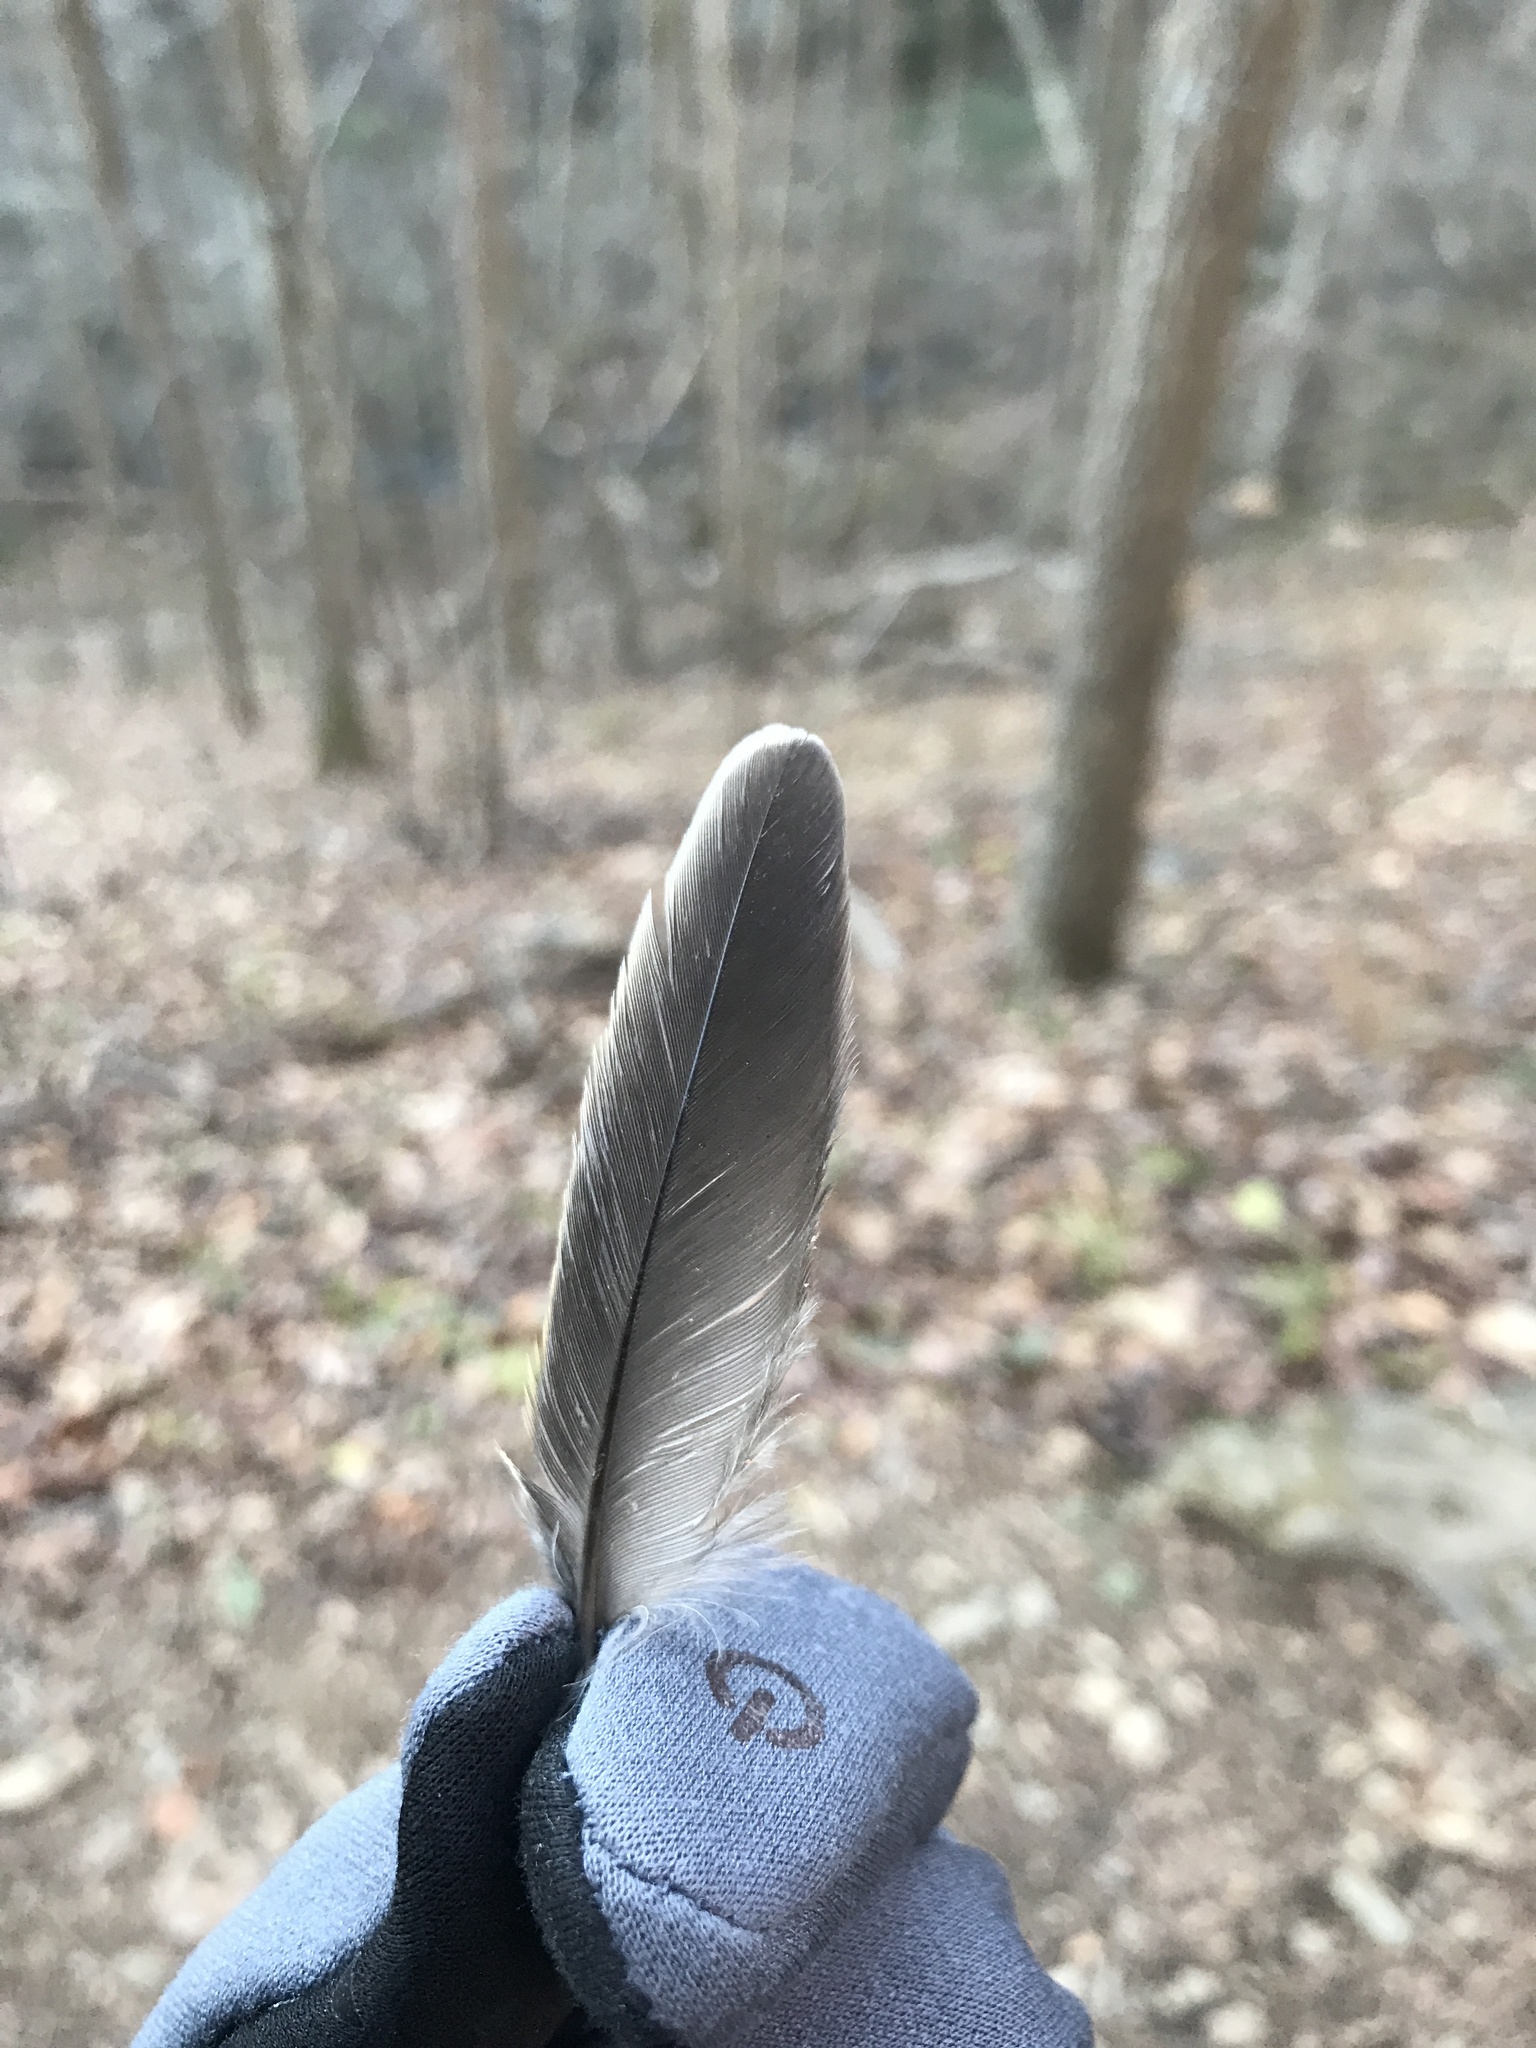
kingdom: Animalia
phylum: Chordata
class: Aves
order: Passeriformes
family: Turdidae
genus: Turdus
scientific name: Turdus migratorius
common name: American robin
